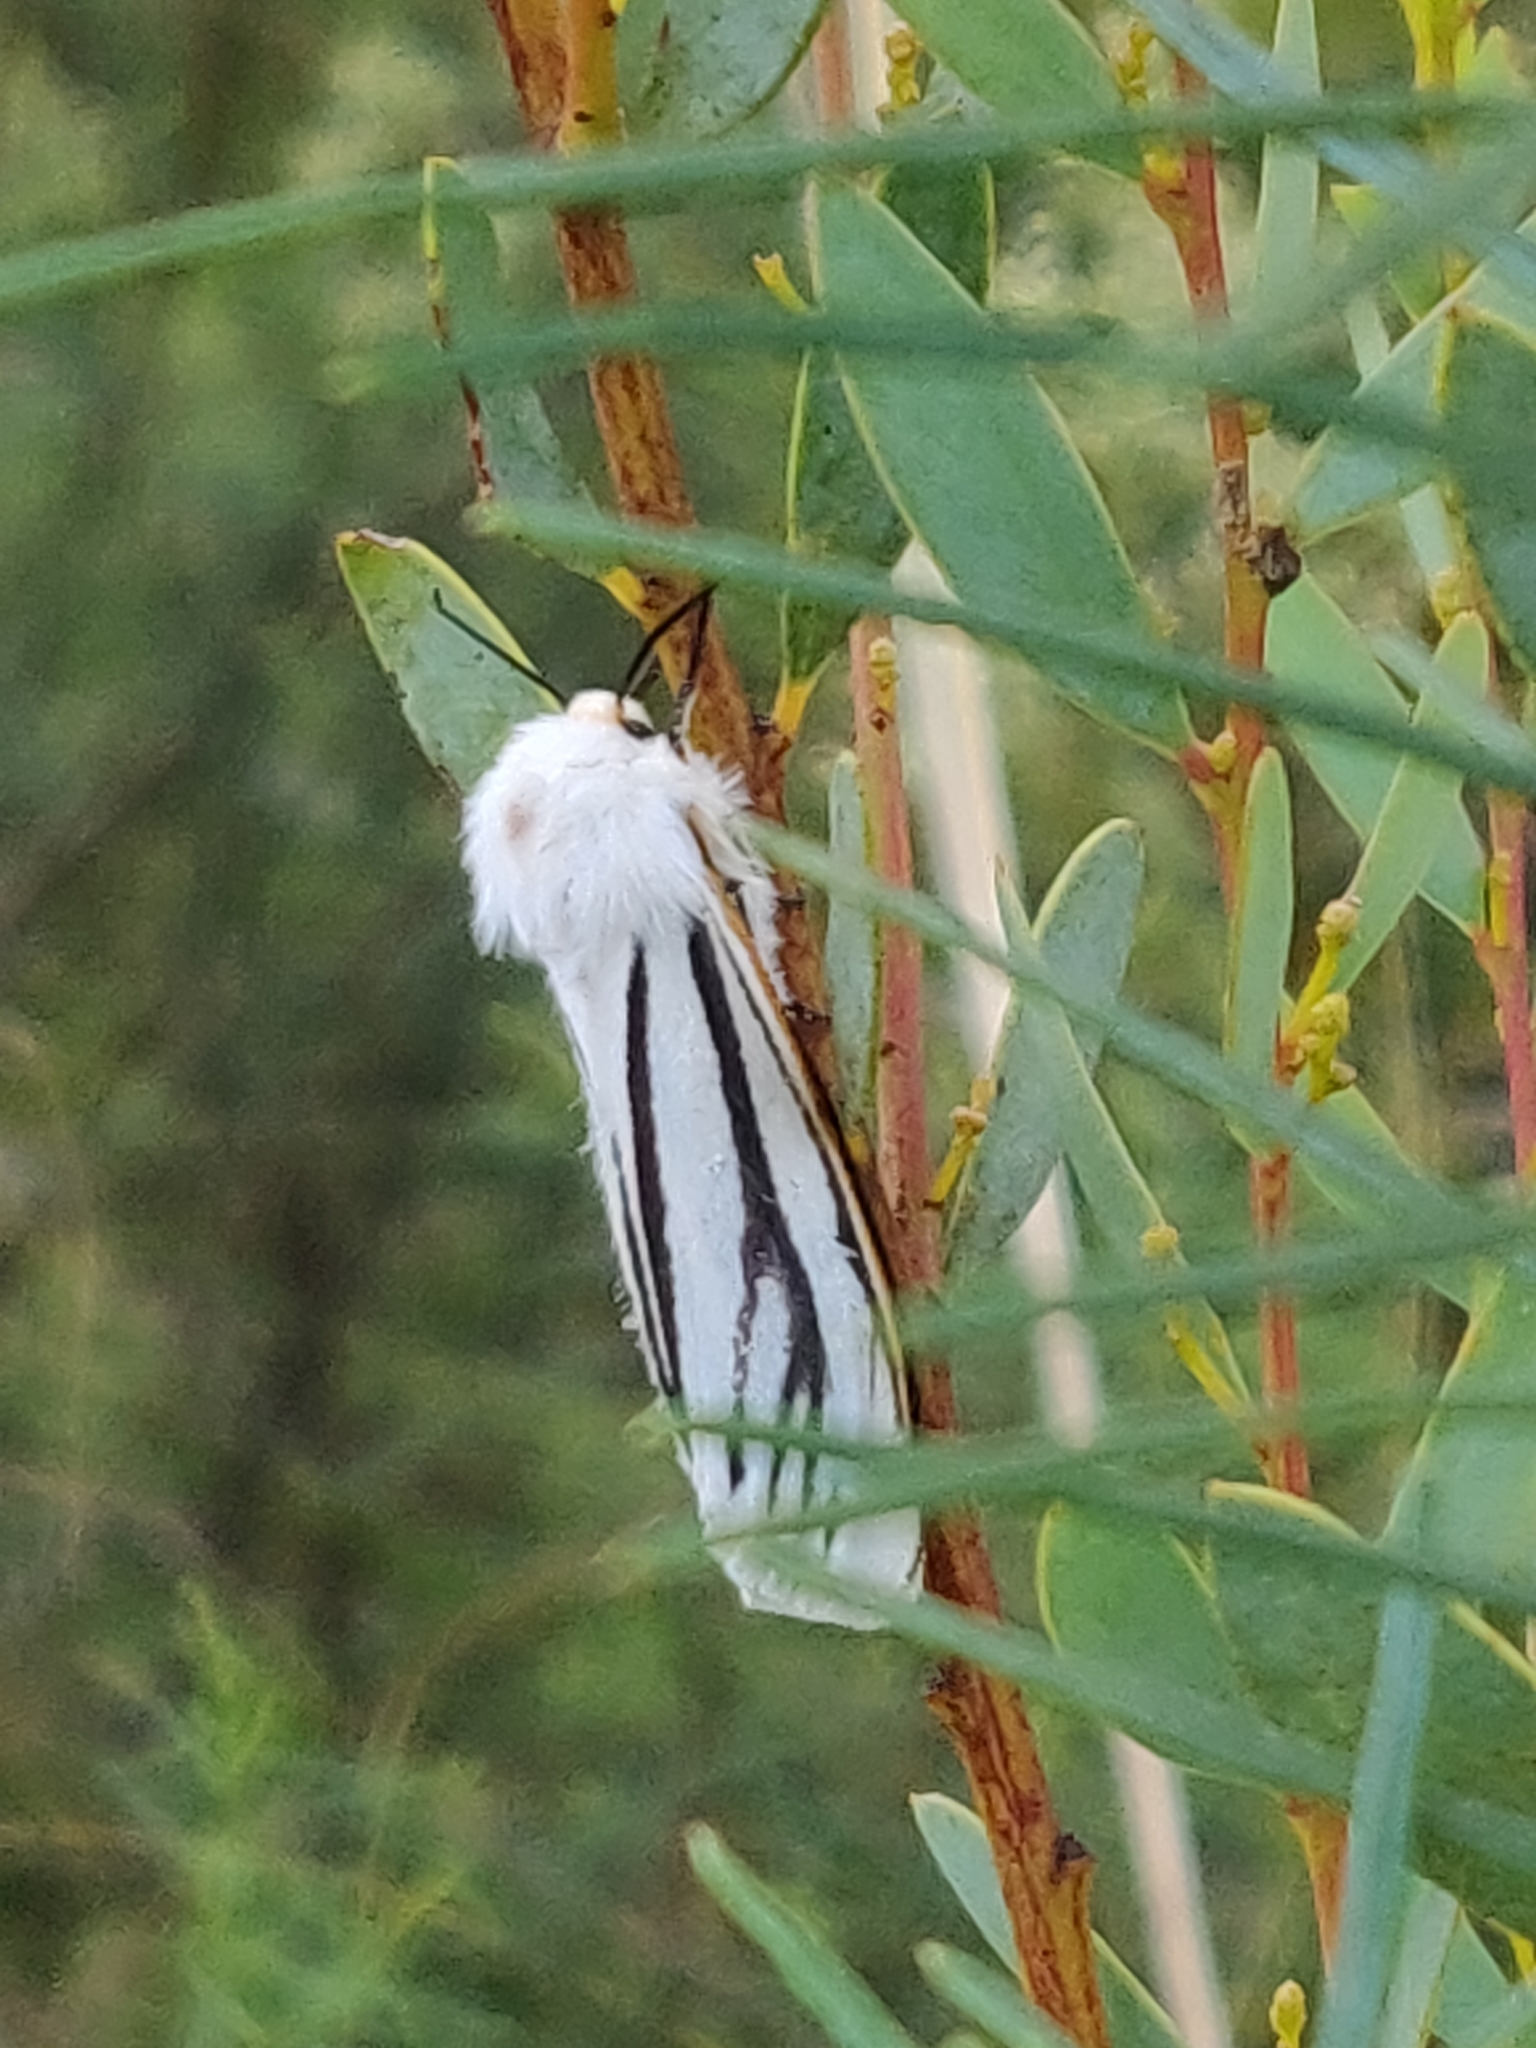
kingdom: Animalia
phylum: Arthropoda
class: Insecta
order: Lepidoptera
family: Erebidae
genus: Aloa
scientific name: Aloa marginata
